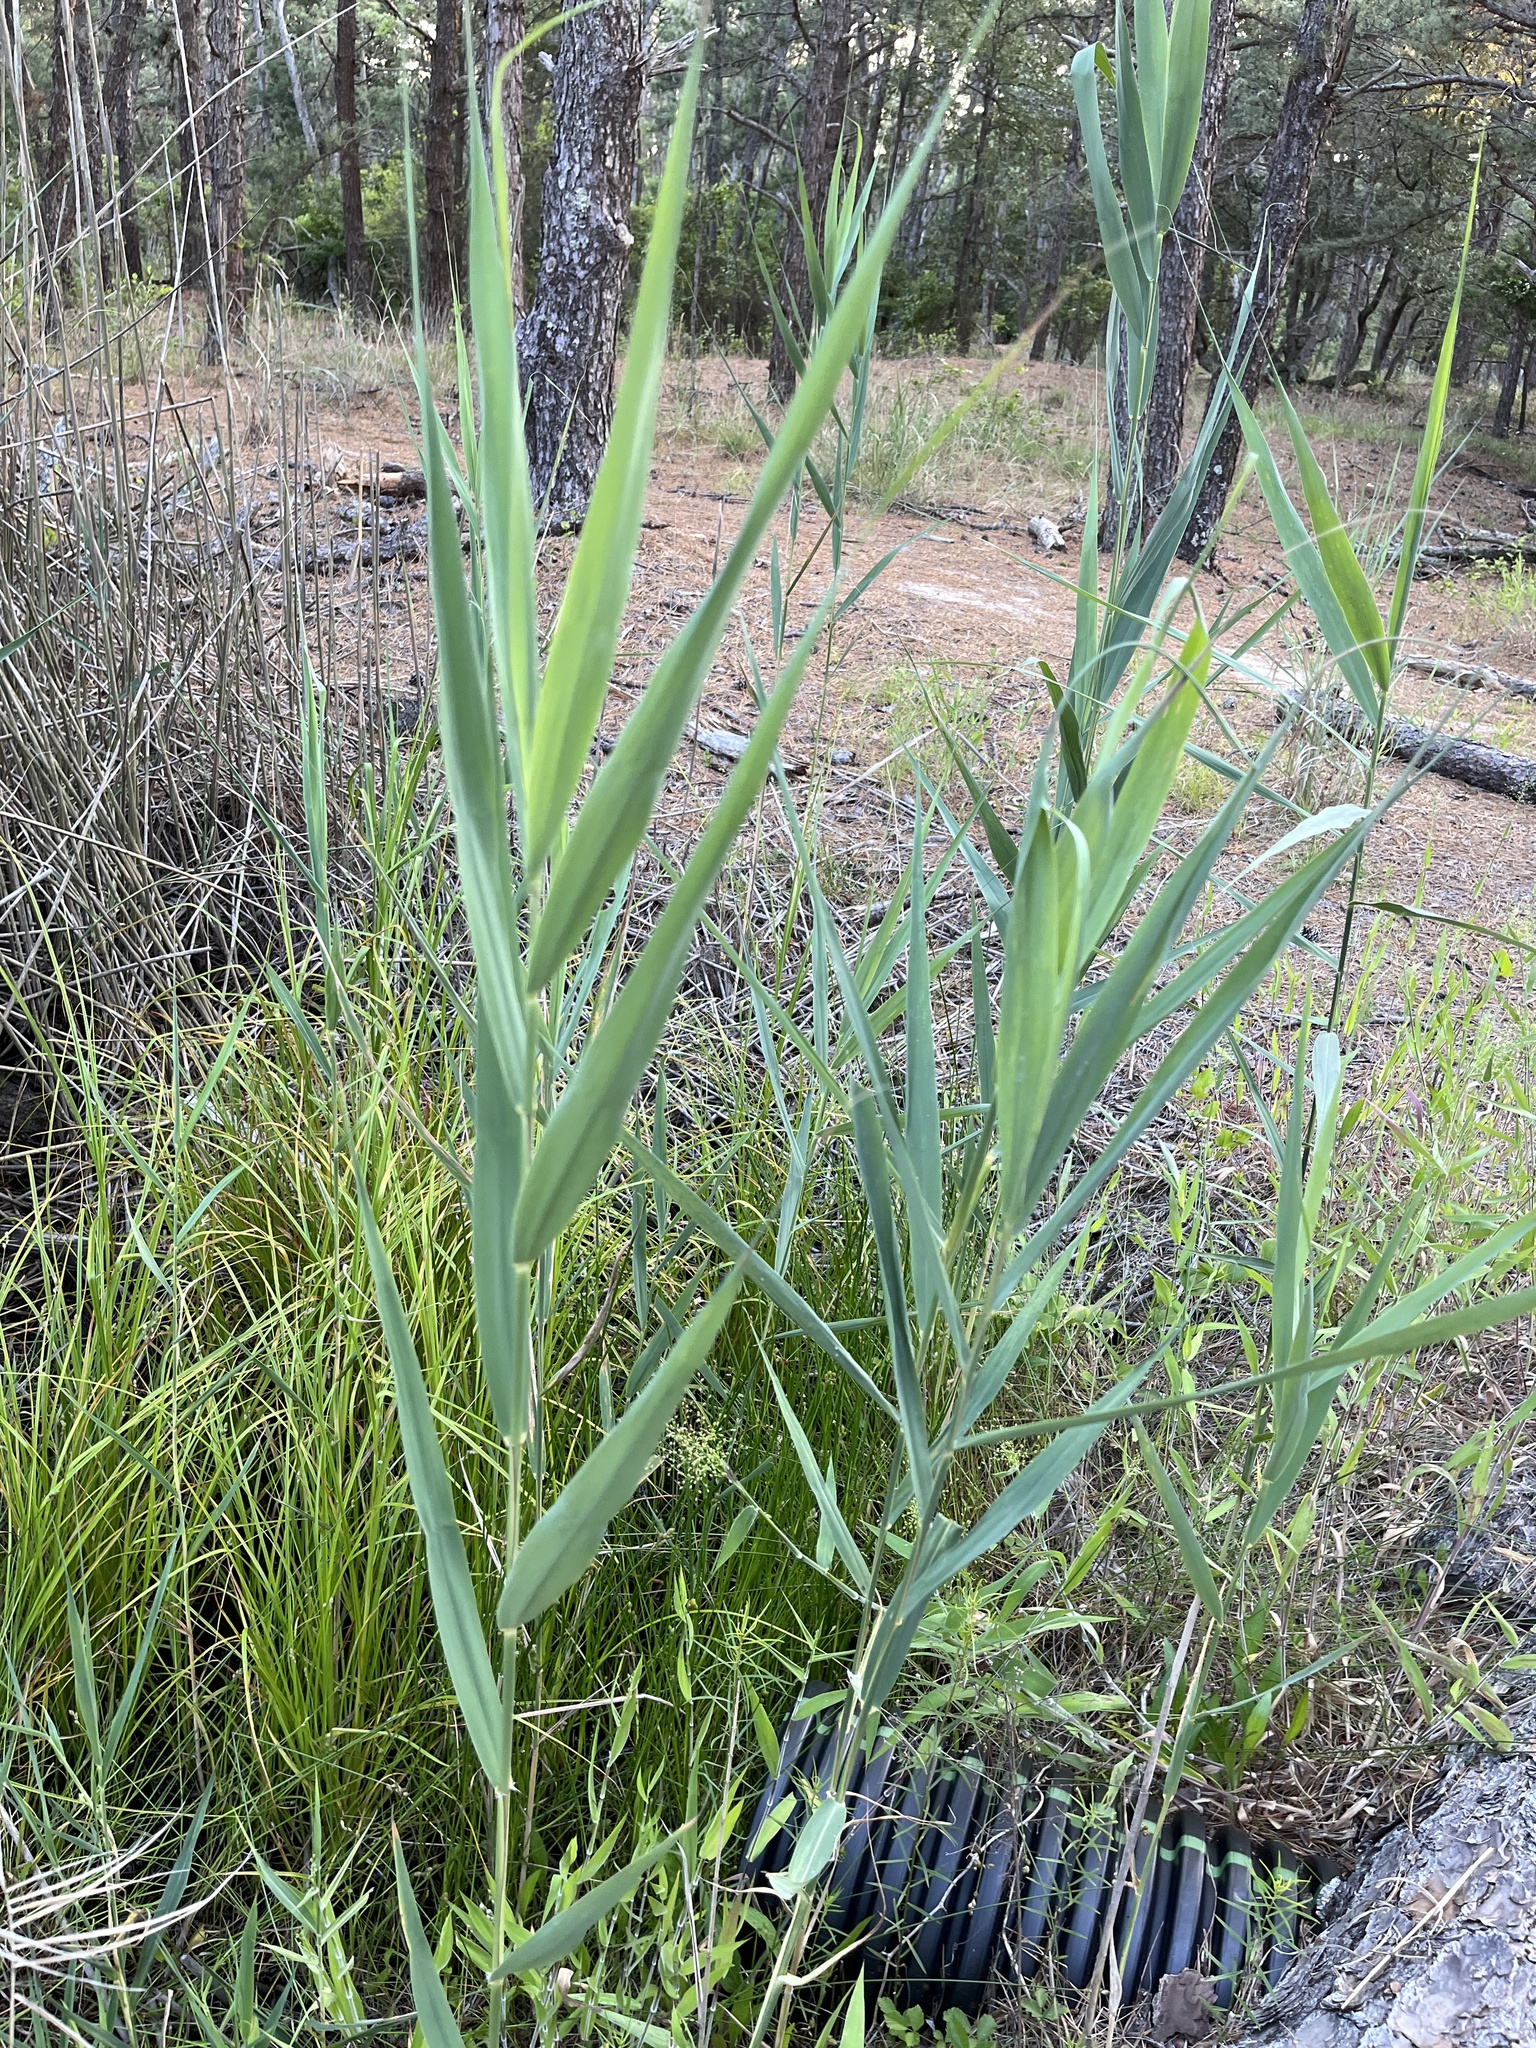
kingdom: Plantae
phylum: Tracheophyta
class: Liliopsida
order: Poales
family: Poaceae
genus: Phragmites
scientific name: Phragmites australis
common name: Common reed
